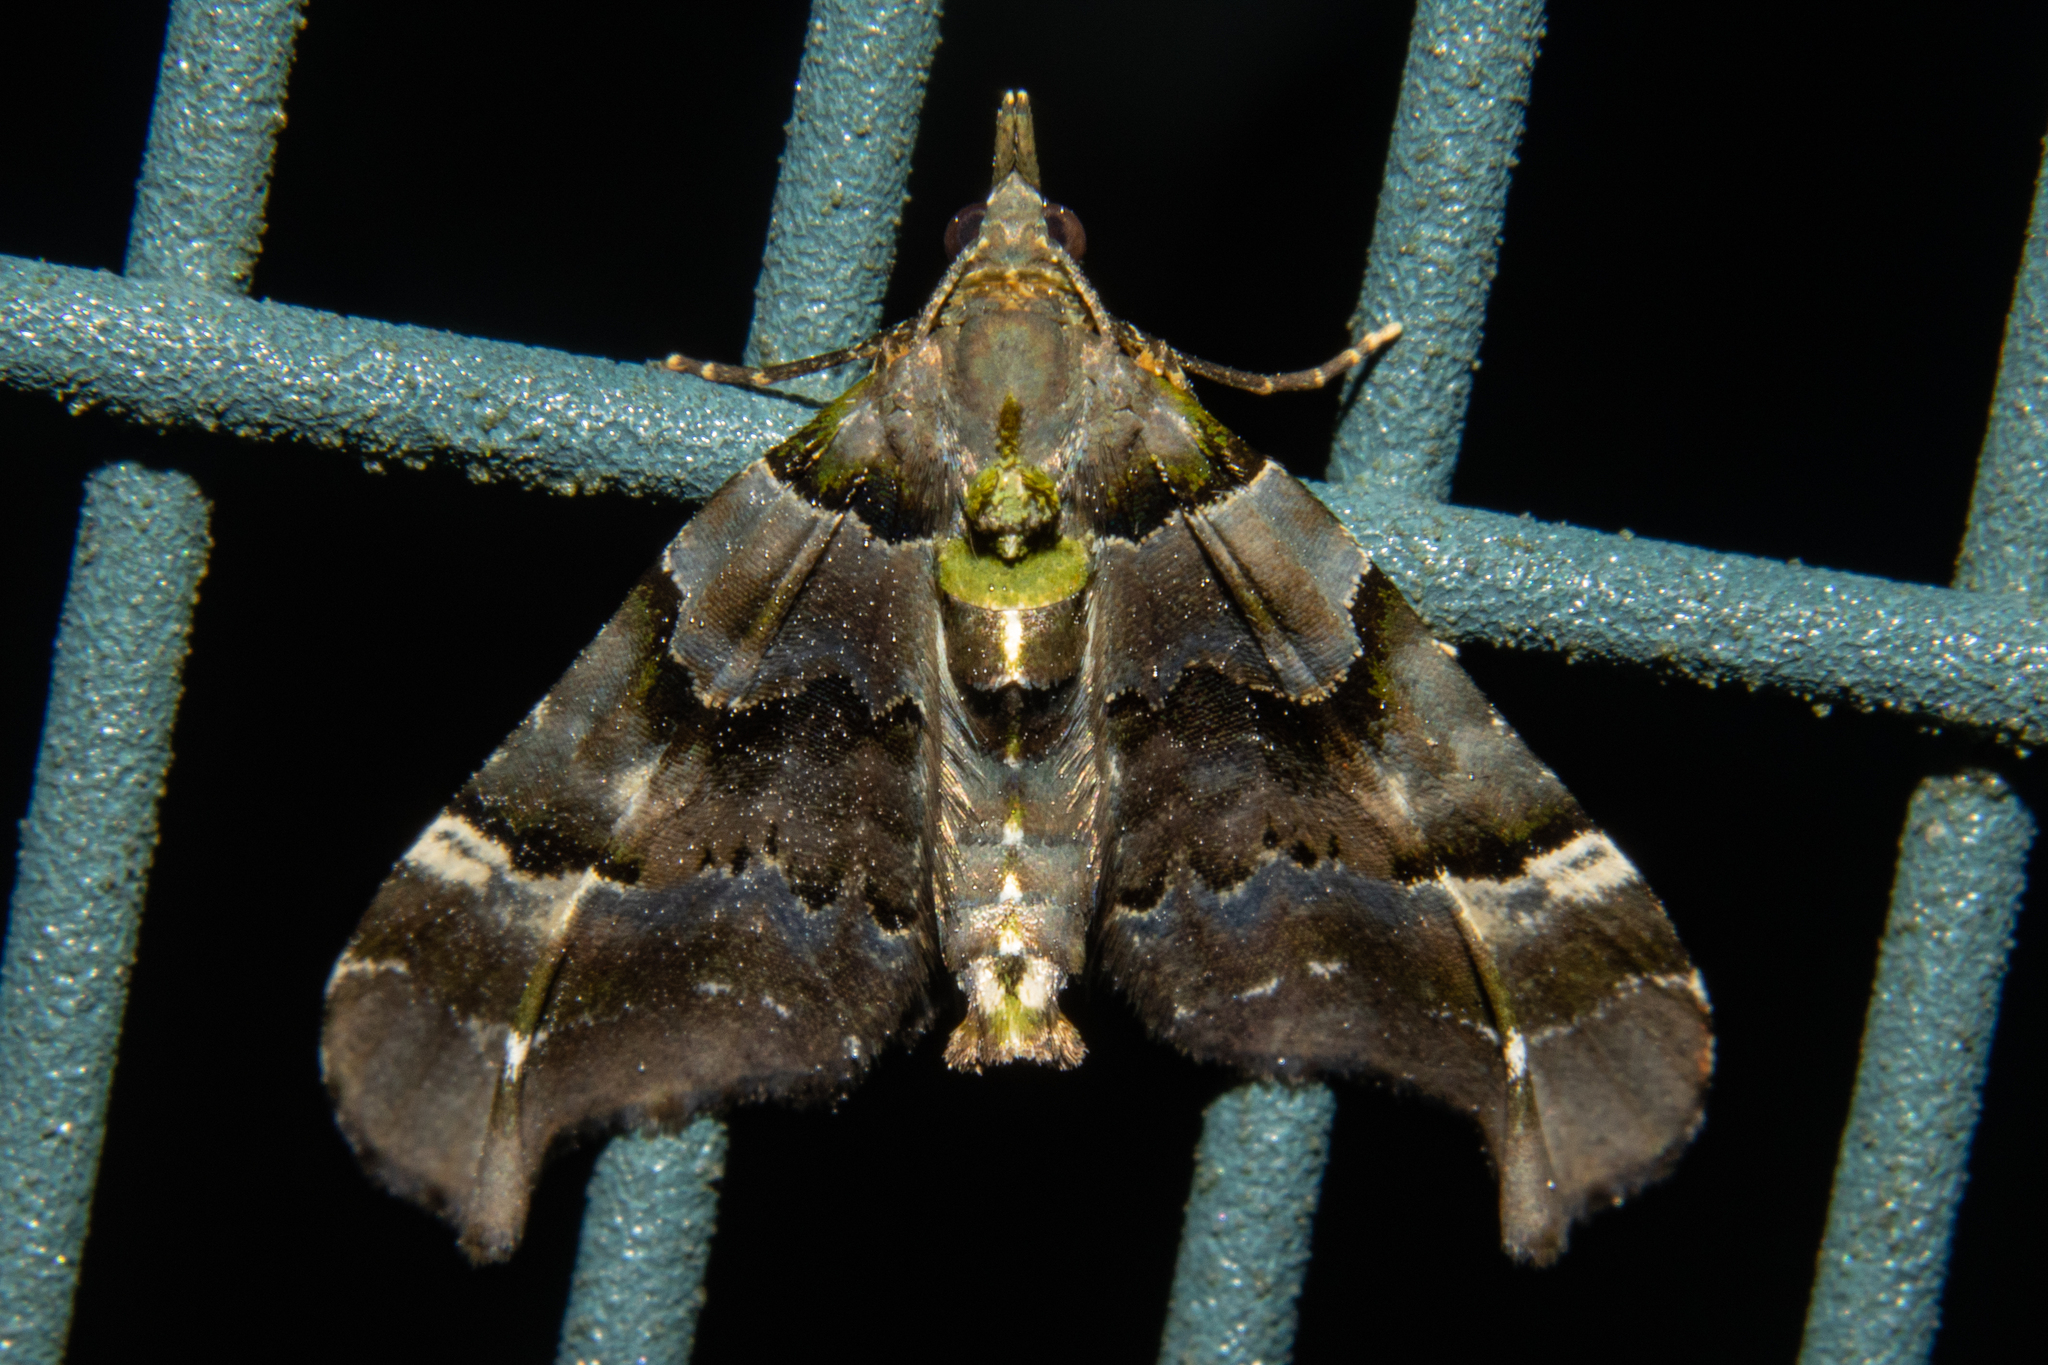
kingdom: Animalia
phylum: Arthropoda
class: Insecta
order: Lepidoptera
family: Geometridae
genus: Elvia
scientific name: Elvia glaucata
